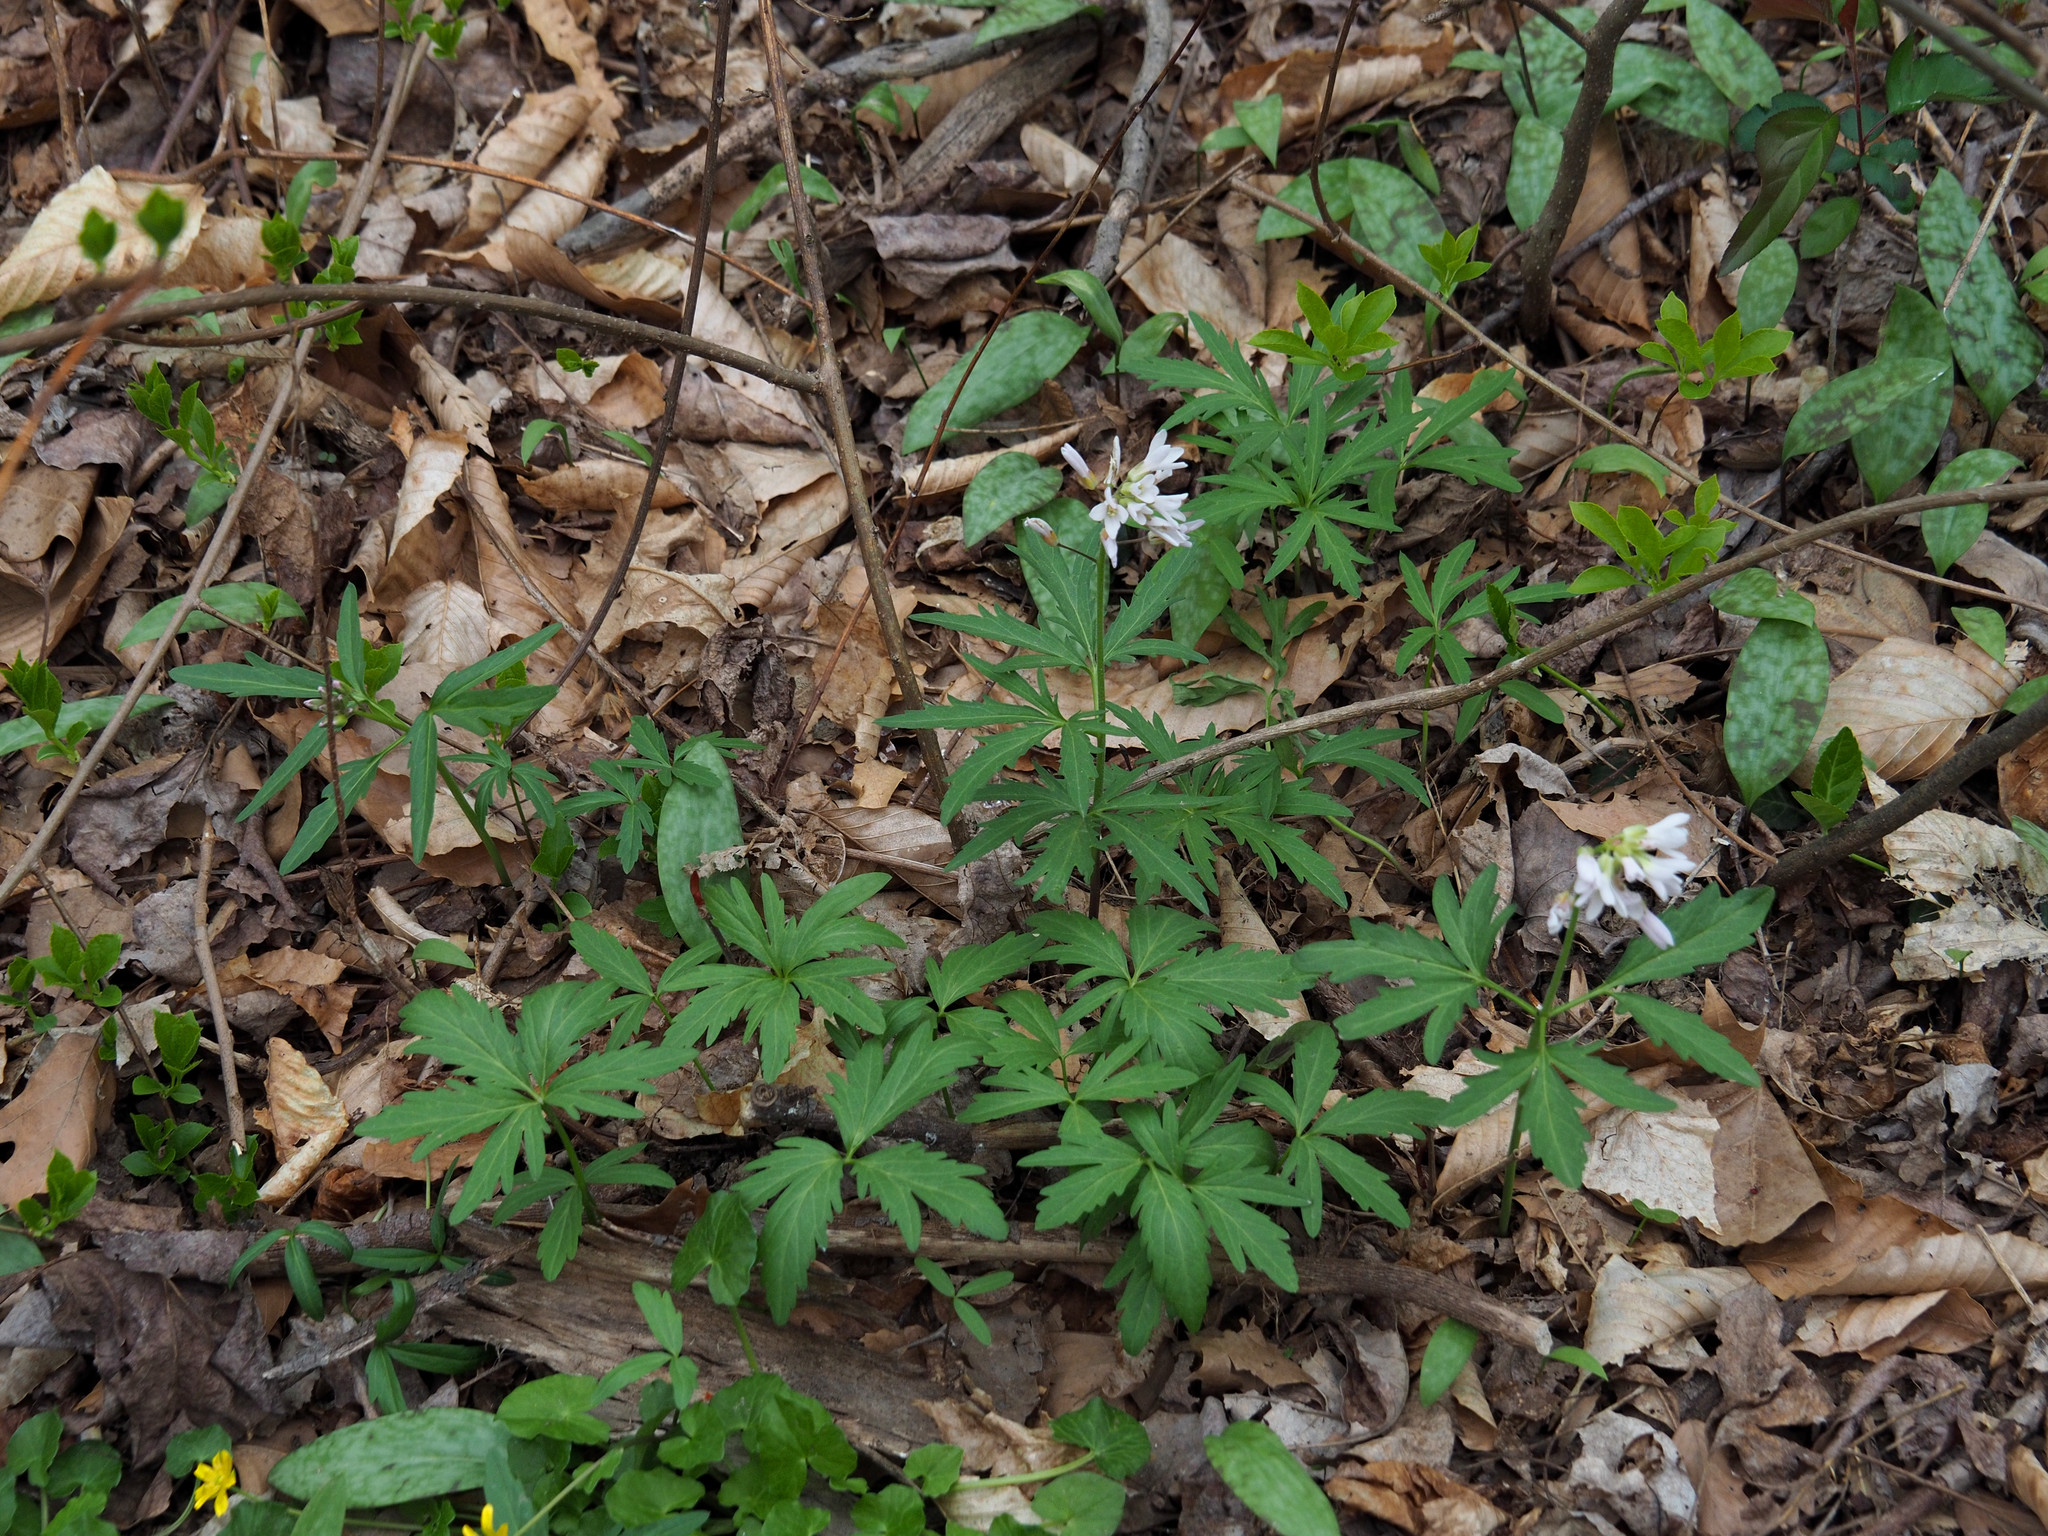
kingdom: Plantae
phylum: Tracheophyta
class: Magnoliopsida
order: Brassicales
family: Brassicaceae
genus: Cardamine
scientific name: Cardamine concatenata
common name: Cut-leaf toothcup
